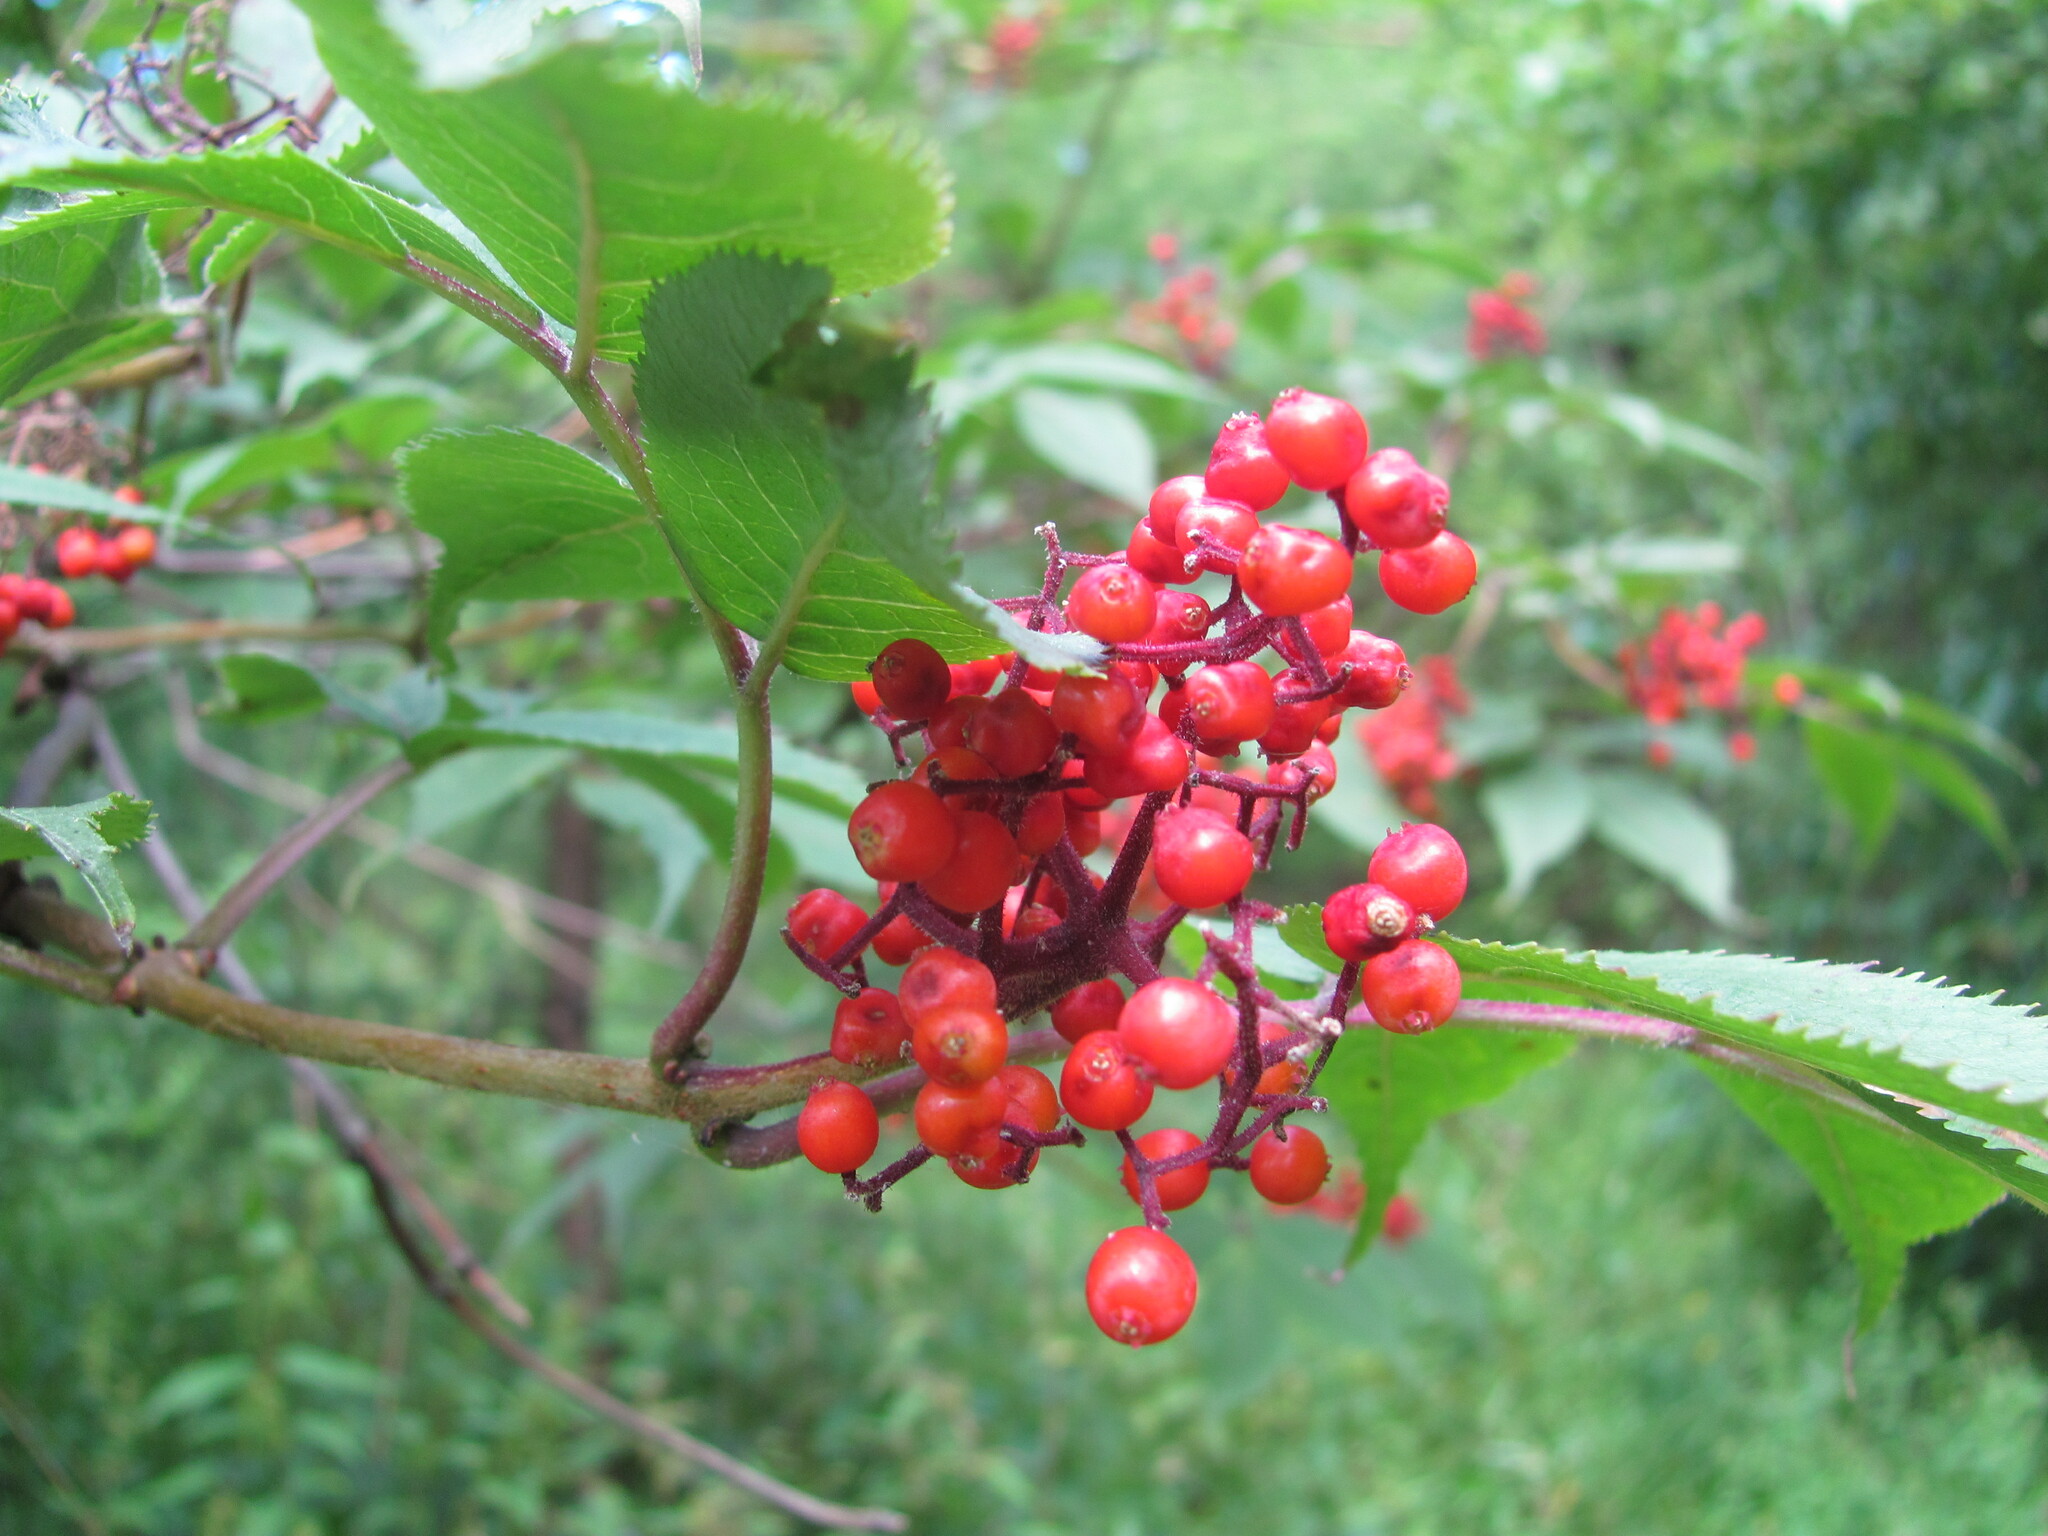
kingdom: Plantae
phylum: Tracheophyta
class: Magnoliopsida
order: Dipsacales
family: Viburnaceae
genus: Sambucus
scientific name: Sambucus sibirica
